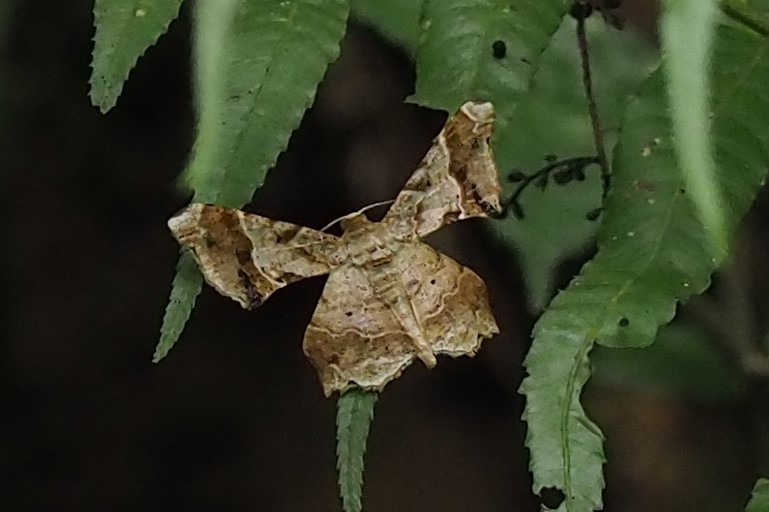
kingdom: Animalia
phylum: Arthropoda
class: Insecta
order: Lepidoptera
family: Geometridae
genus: Krananda
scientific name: Krananda oliveomarginata
